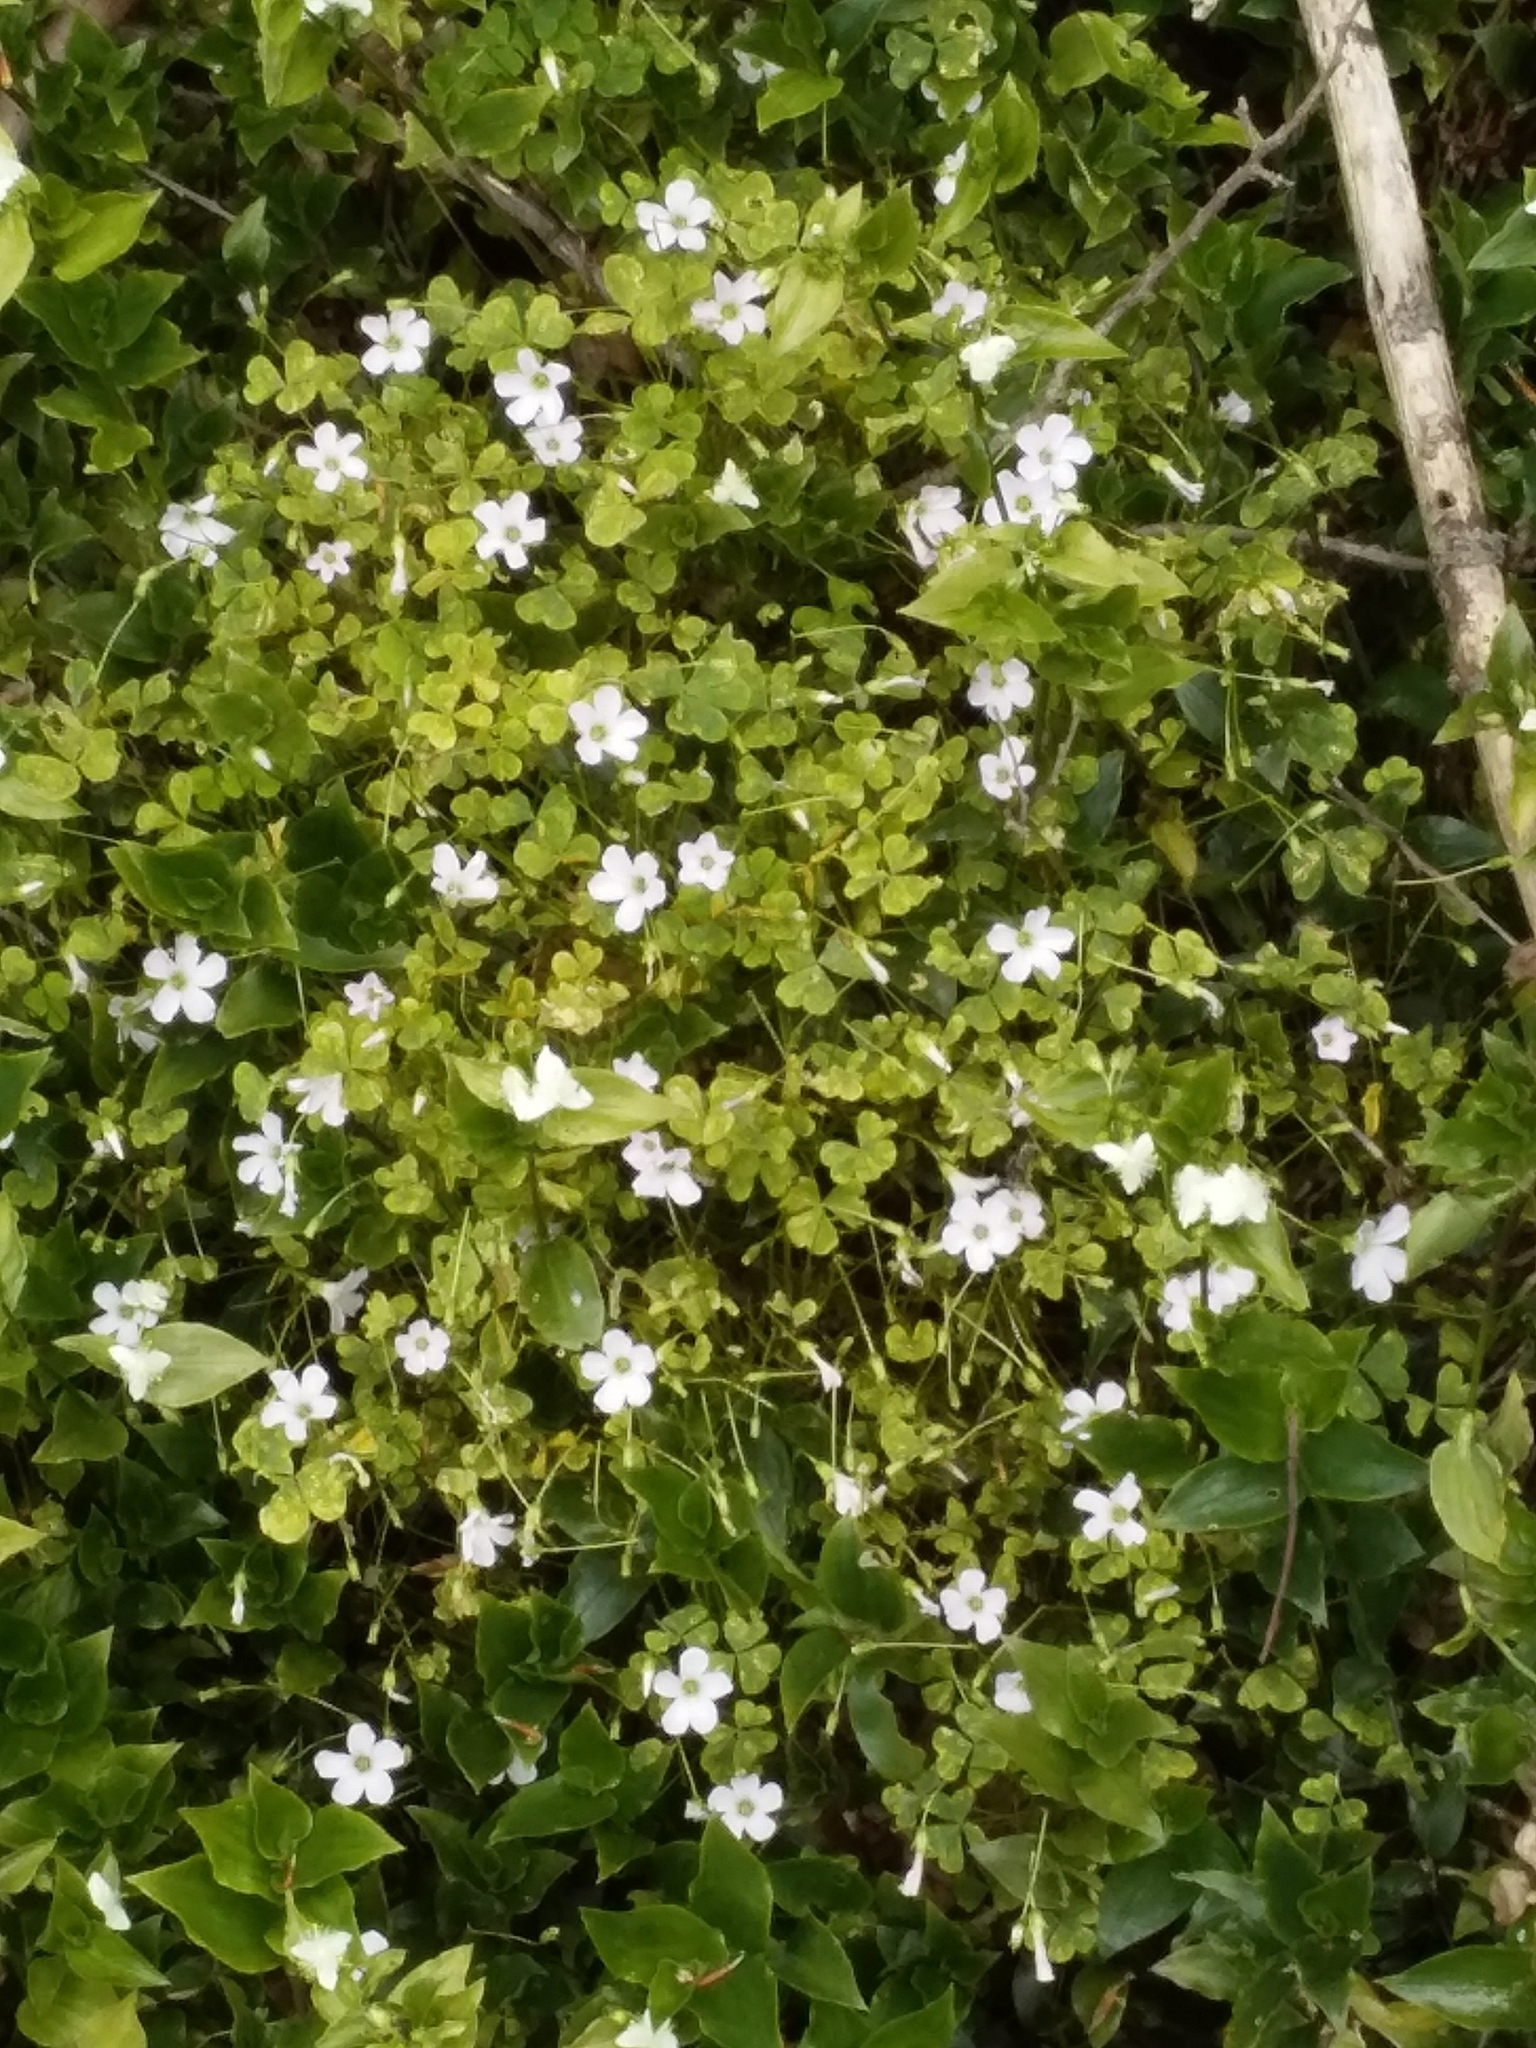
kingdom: Plantae
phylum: Tracheophyta
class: Magnoliopsida
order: Oxalidales
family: Oxalidaceae
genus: Oxalis
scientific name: Oxalis incarnata
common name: Pale pink-sorrel
